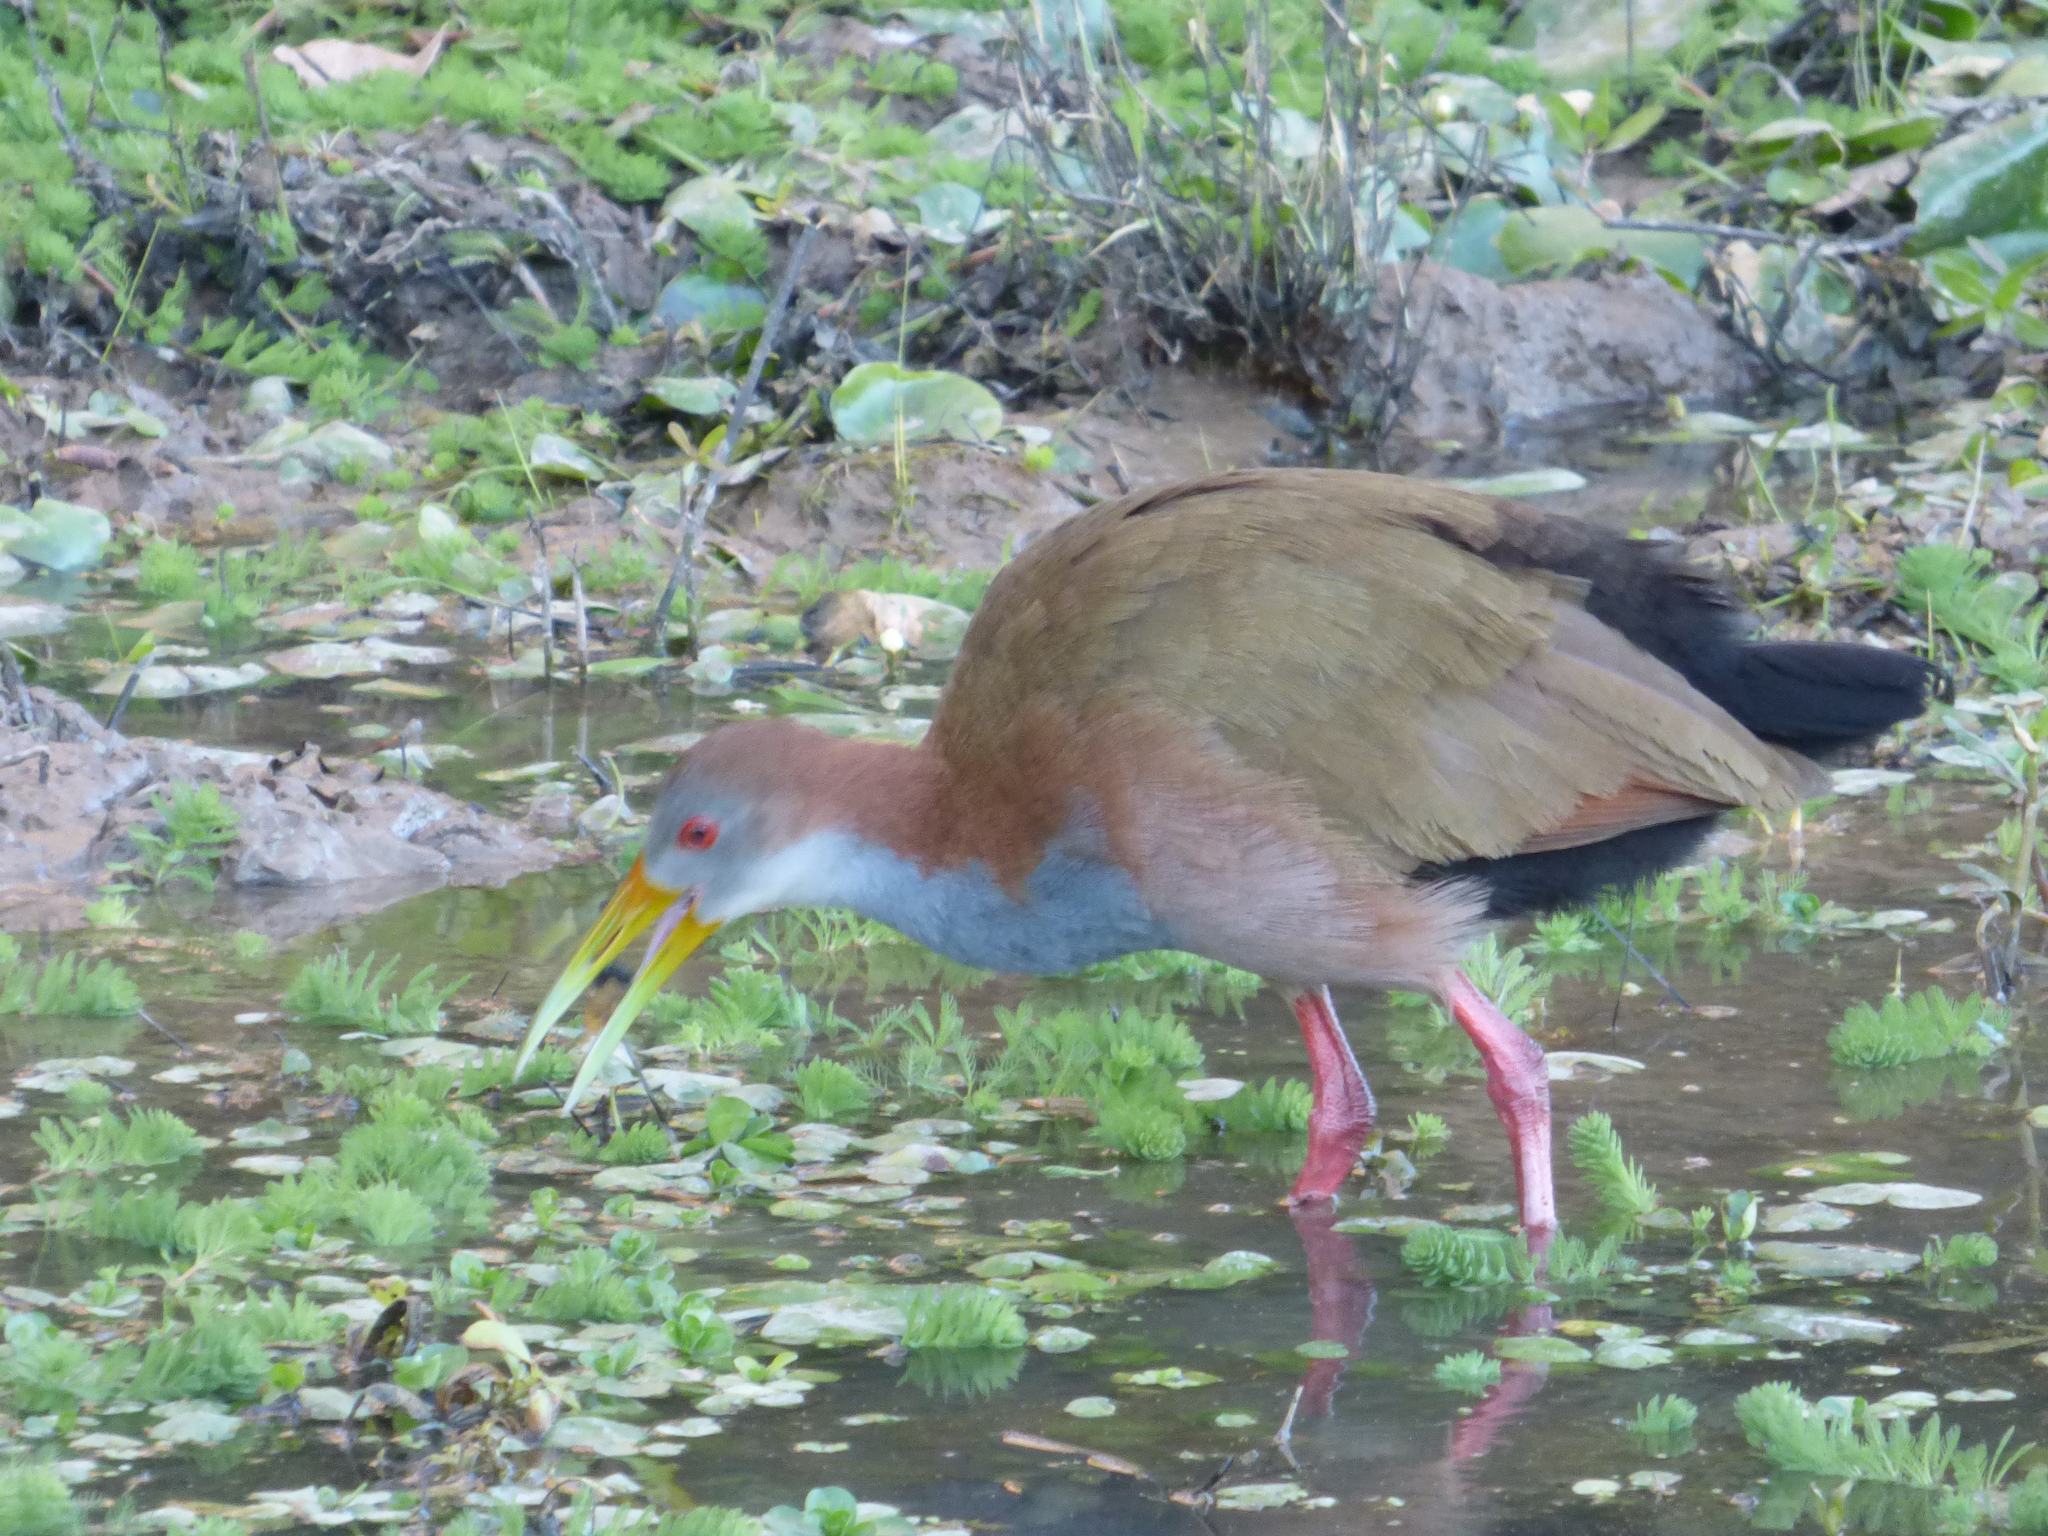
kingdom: Animalia
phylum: Chordata
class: Aves
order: Gruiformes
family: Rallidae
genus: Aramides
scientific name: Aramides ypecaha
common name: Giant wood rail
